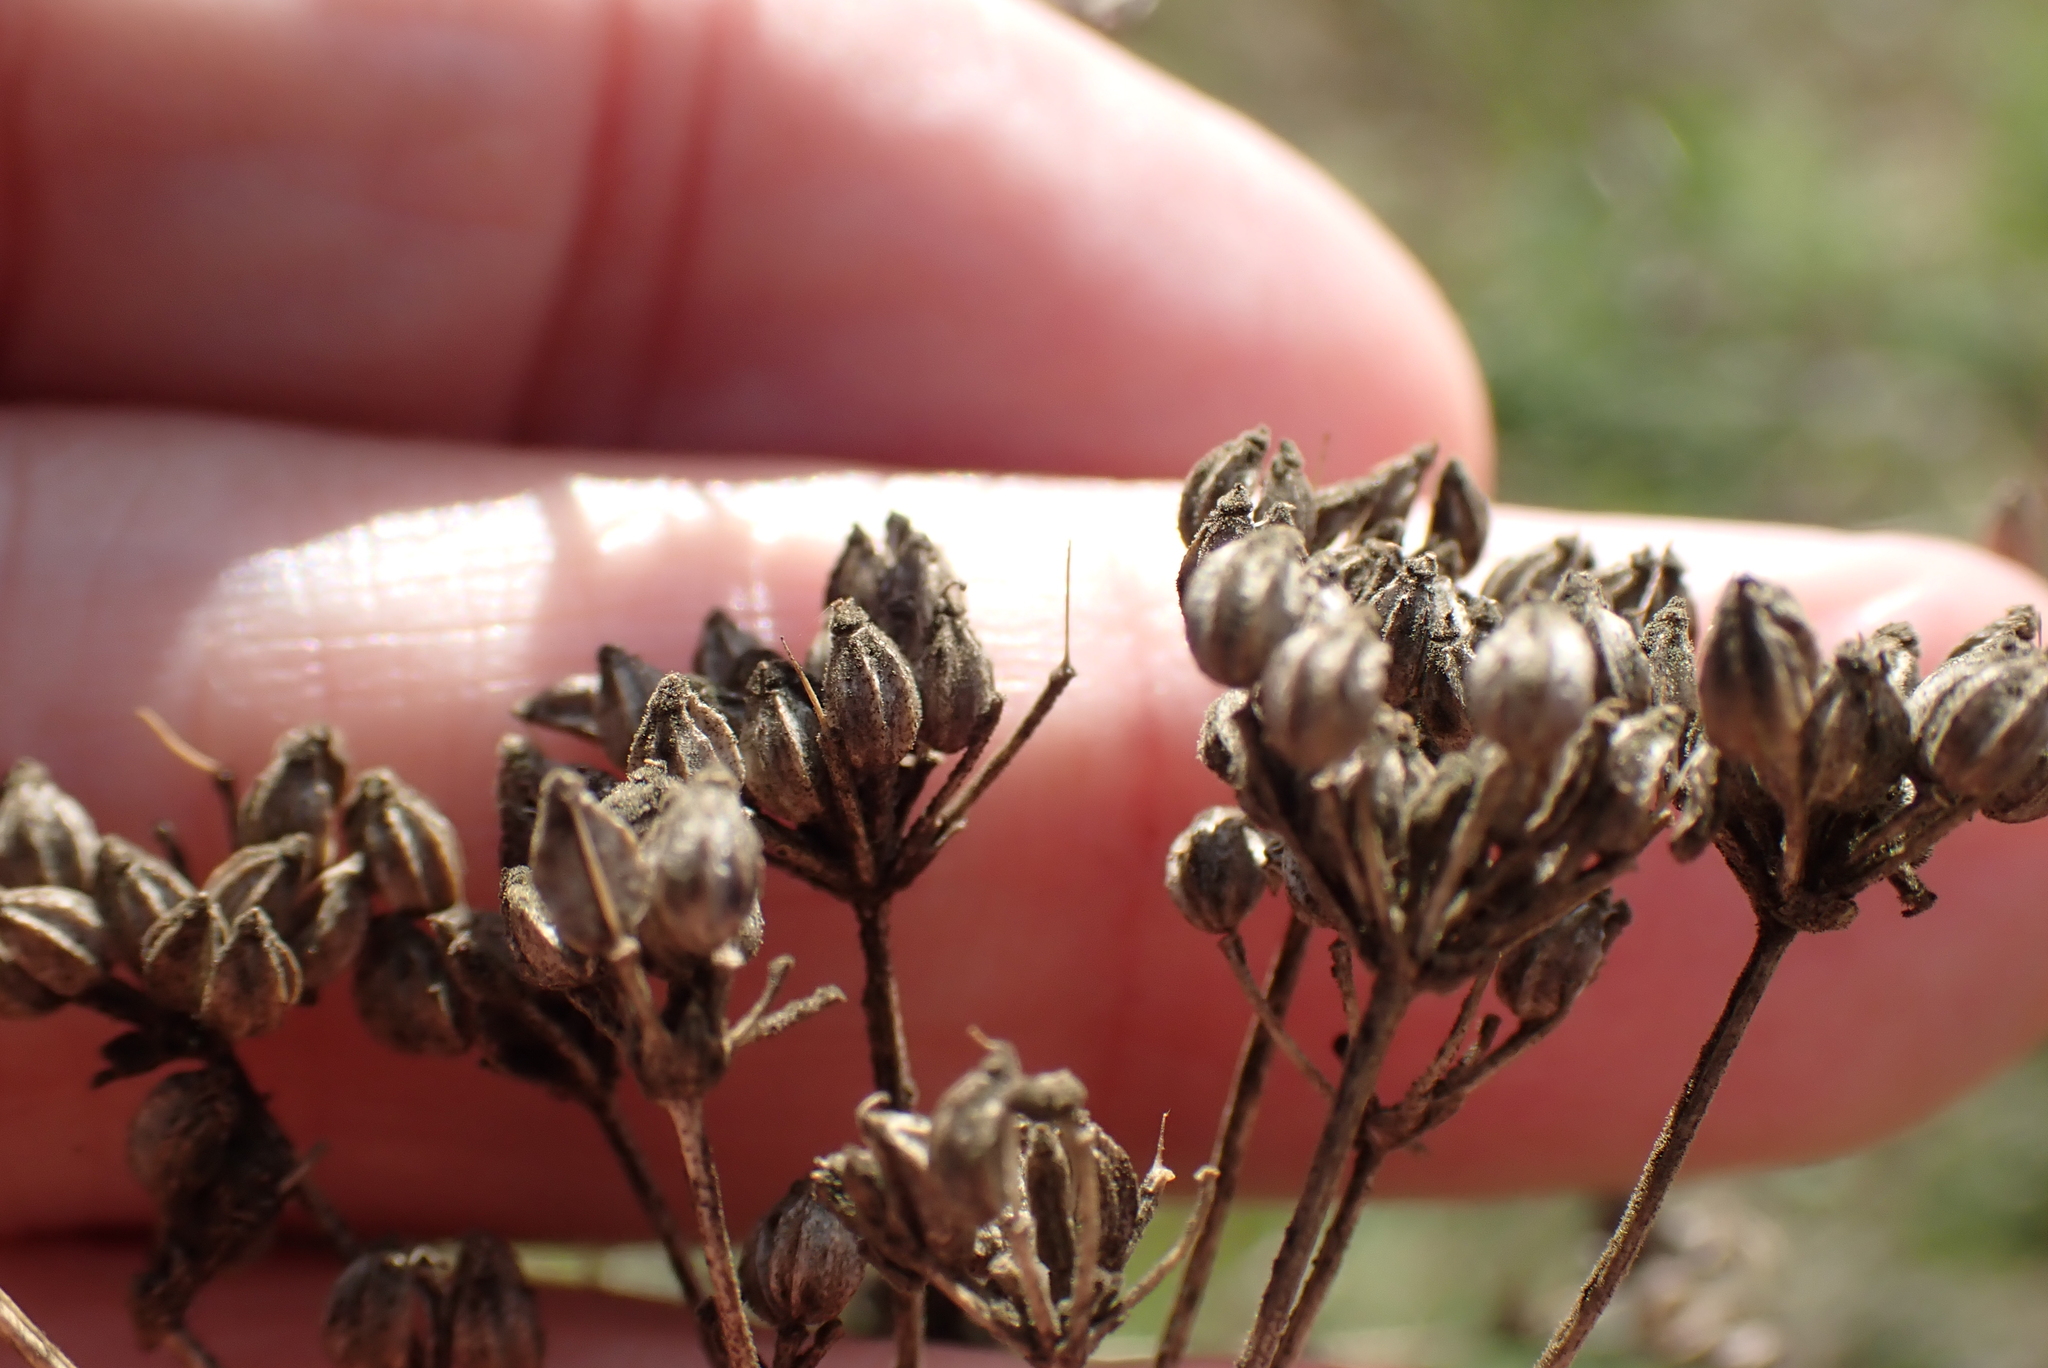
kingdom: Plantae
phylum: Tracheophyta
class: Magnoliopsida
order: Apiales
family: Apiaceae
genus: Conium
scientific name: Conium maculatum
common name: Hemlock
